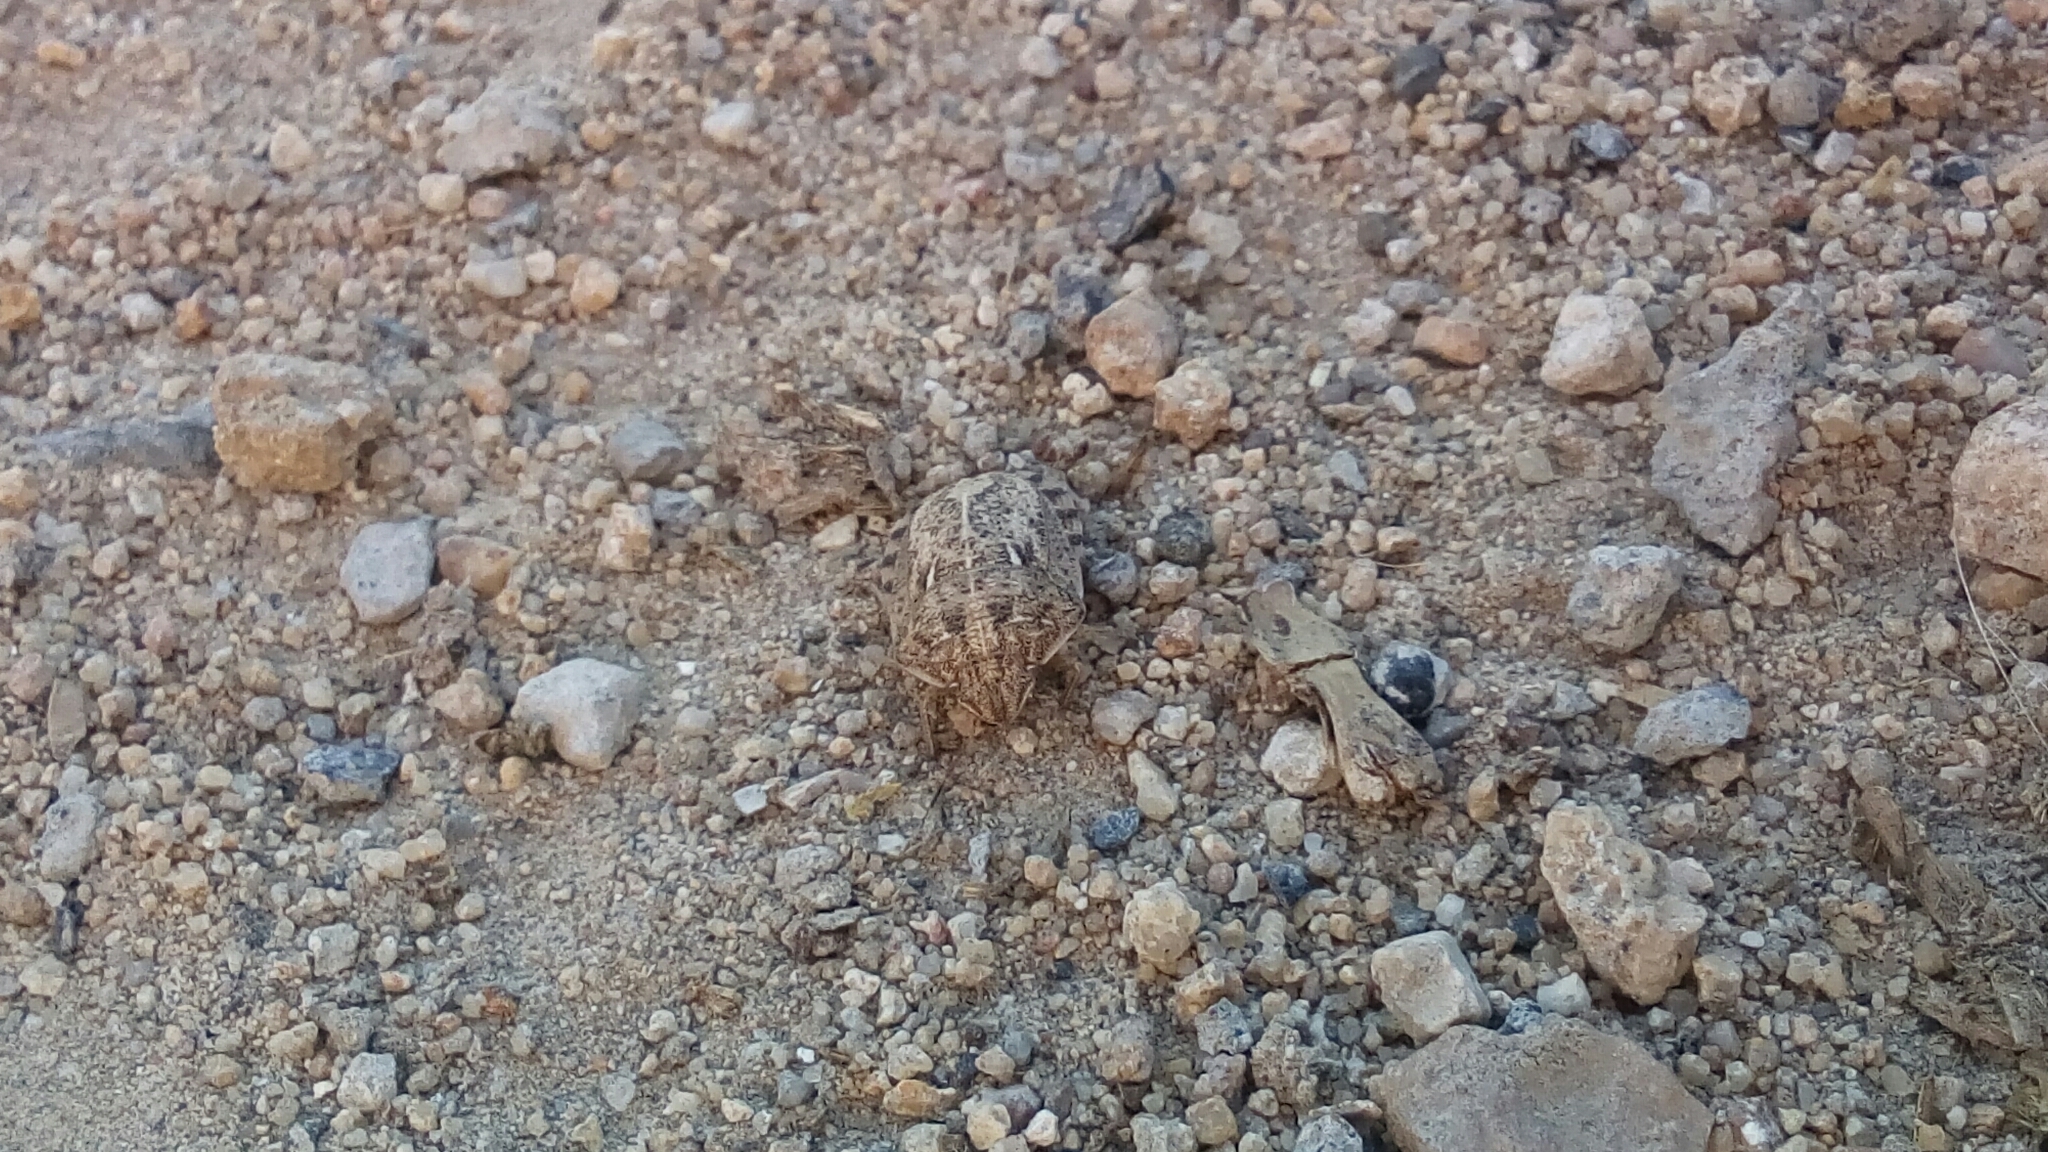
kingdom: Animalia
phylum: Arthropoda
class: Insecta
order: Hemiptera
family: Scutelleridae
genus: Eurygaster
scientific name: Eurygaster integriceps
